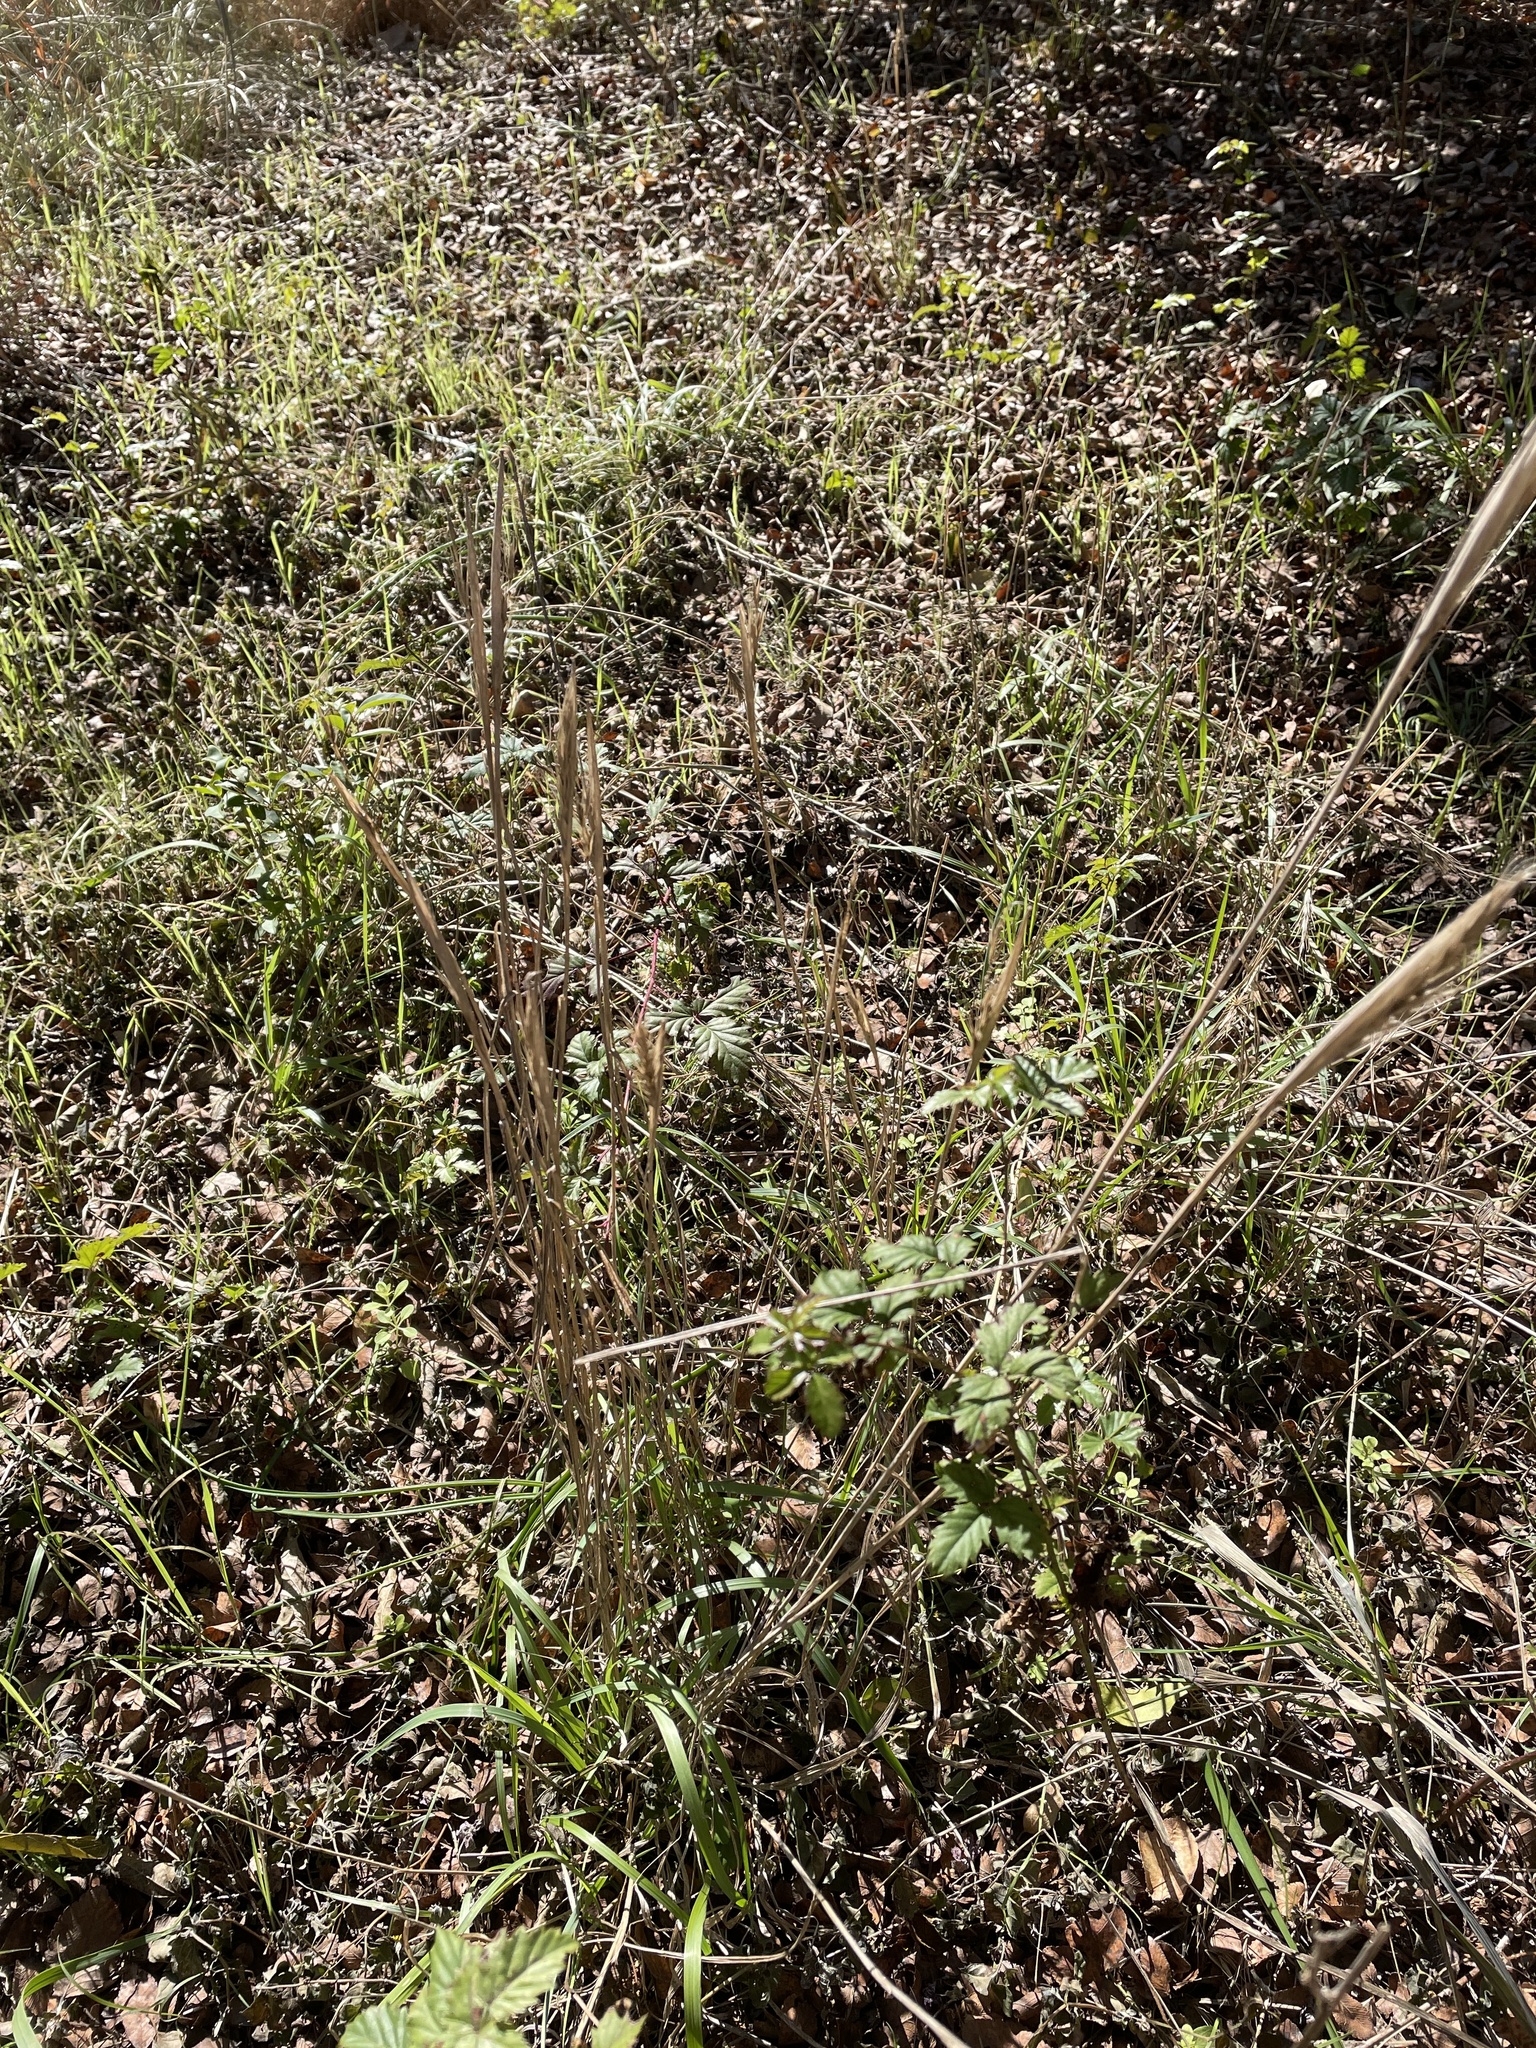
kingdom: Plantae
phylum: Tracheophyta
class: Liliopsida
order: Poales
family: Poaceae
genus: Elymus
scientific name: Elymus virginicus
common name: Common eastern wildrye
